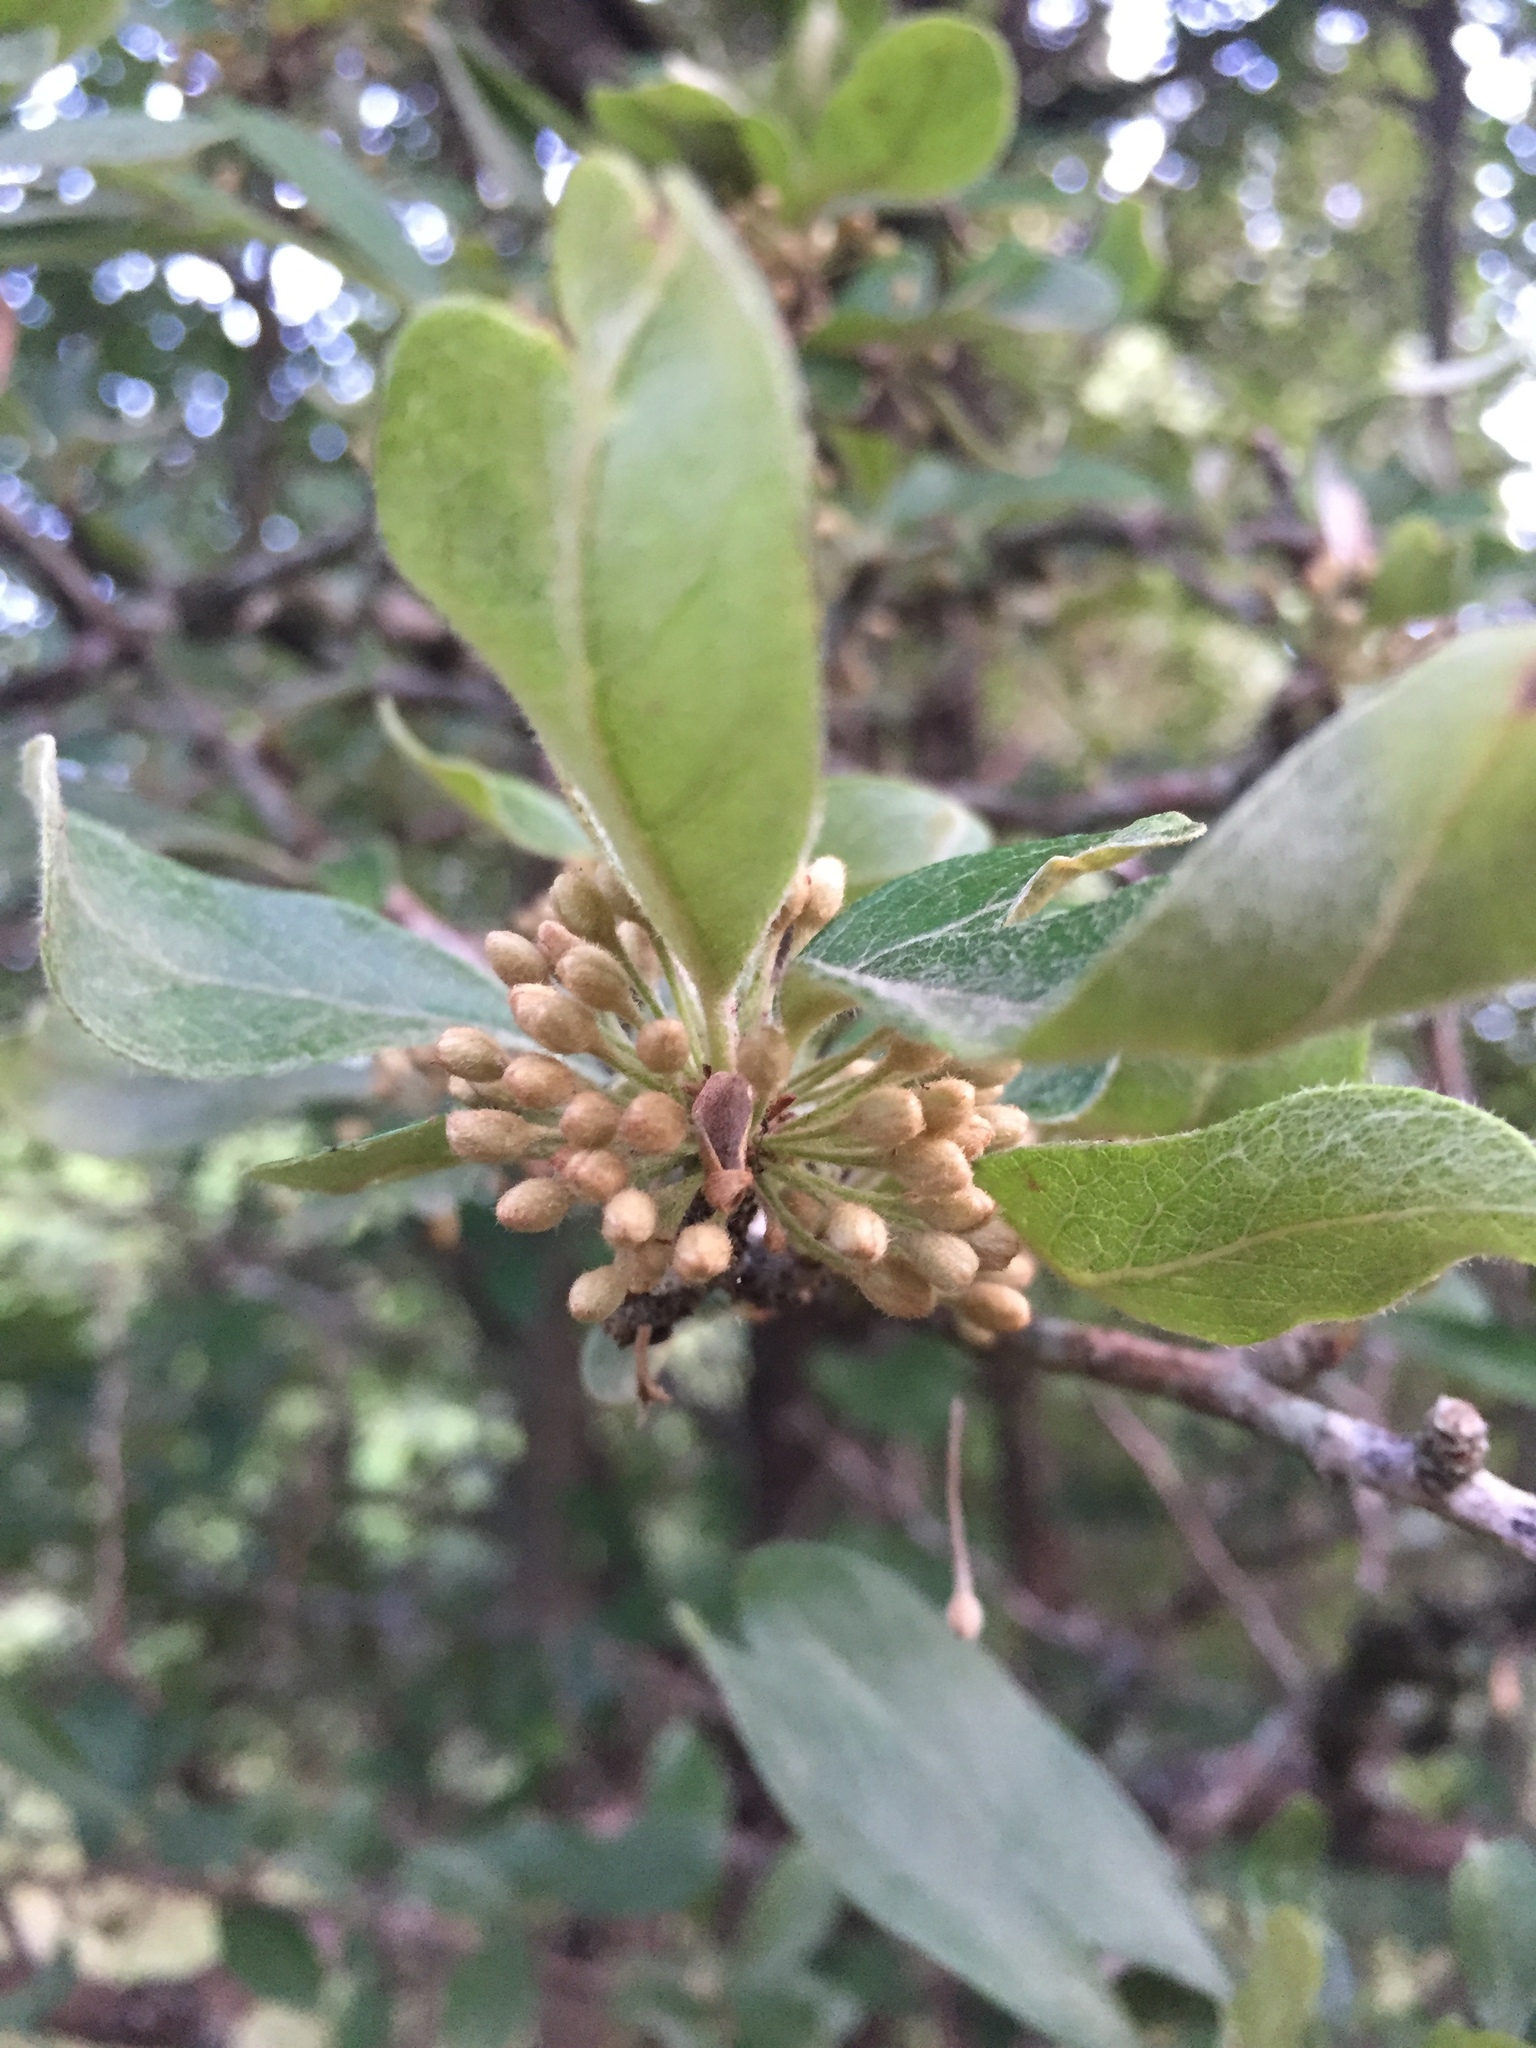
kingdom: Plantae
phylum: Tracheophyta
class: Magnoliopsida
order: Ericales
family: Sapotaceae
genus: Sideroxylon
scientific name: Sideroxylon lanuginosum
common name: Chittamwood
